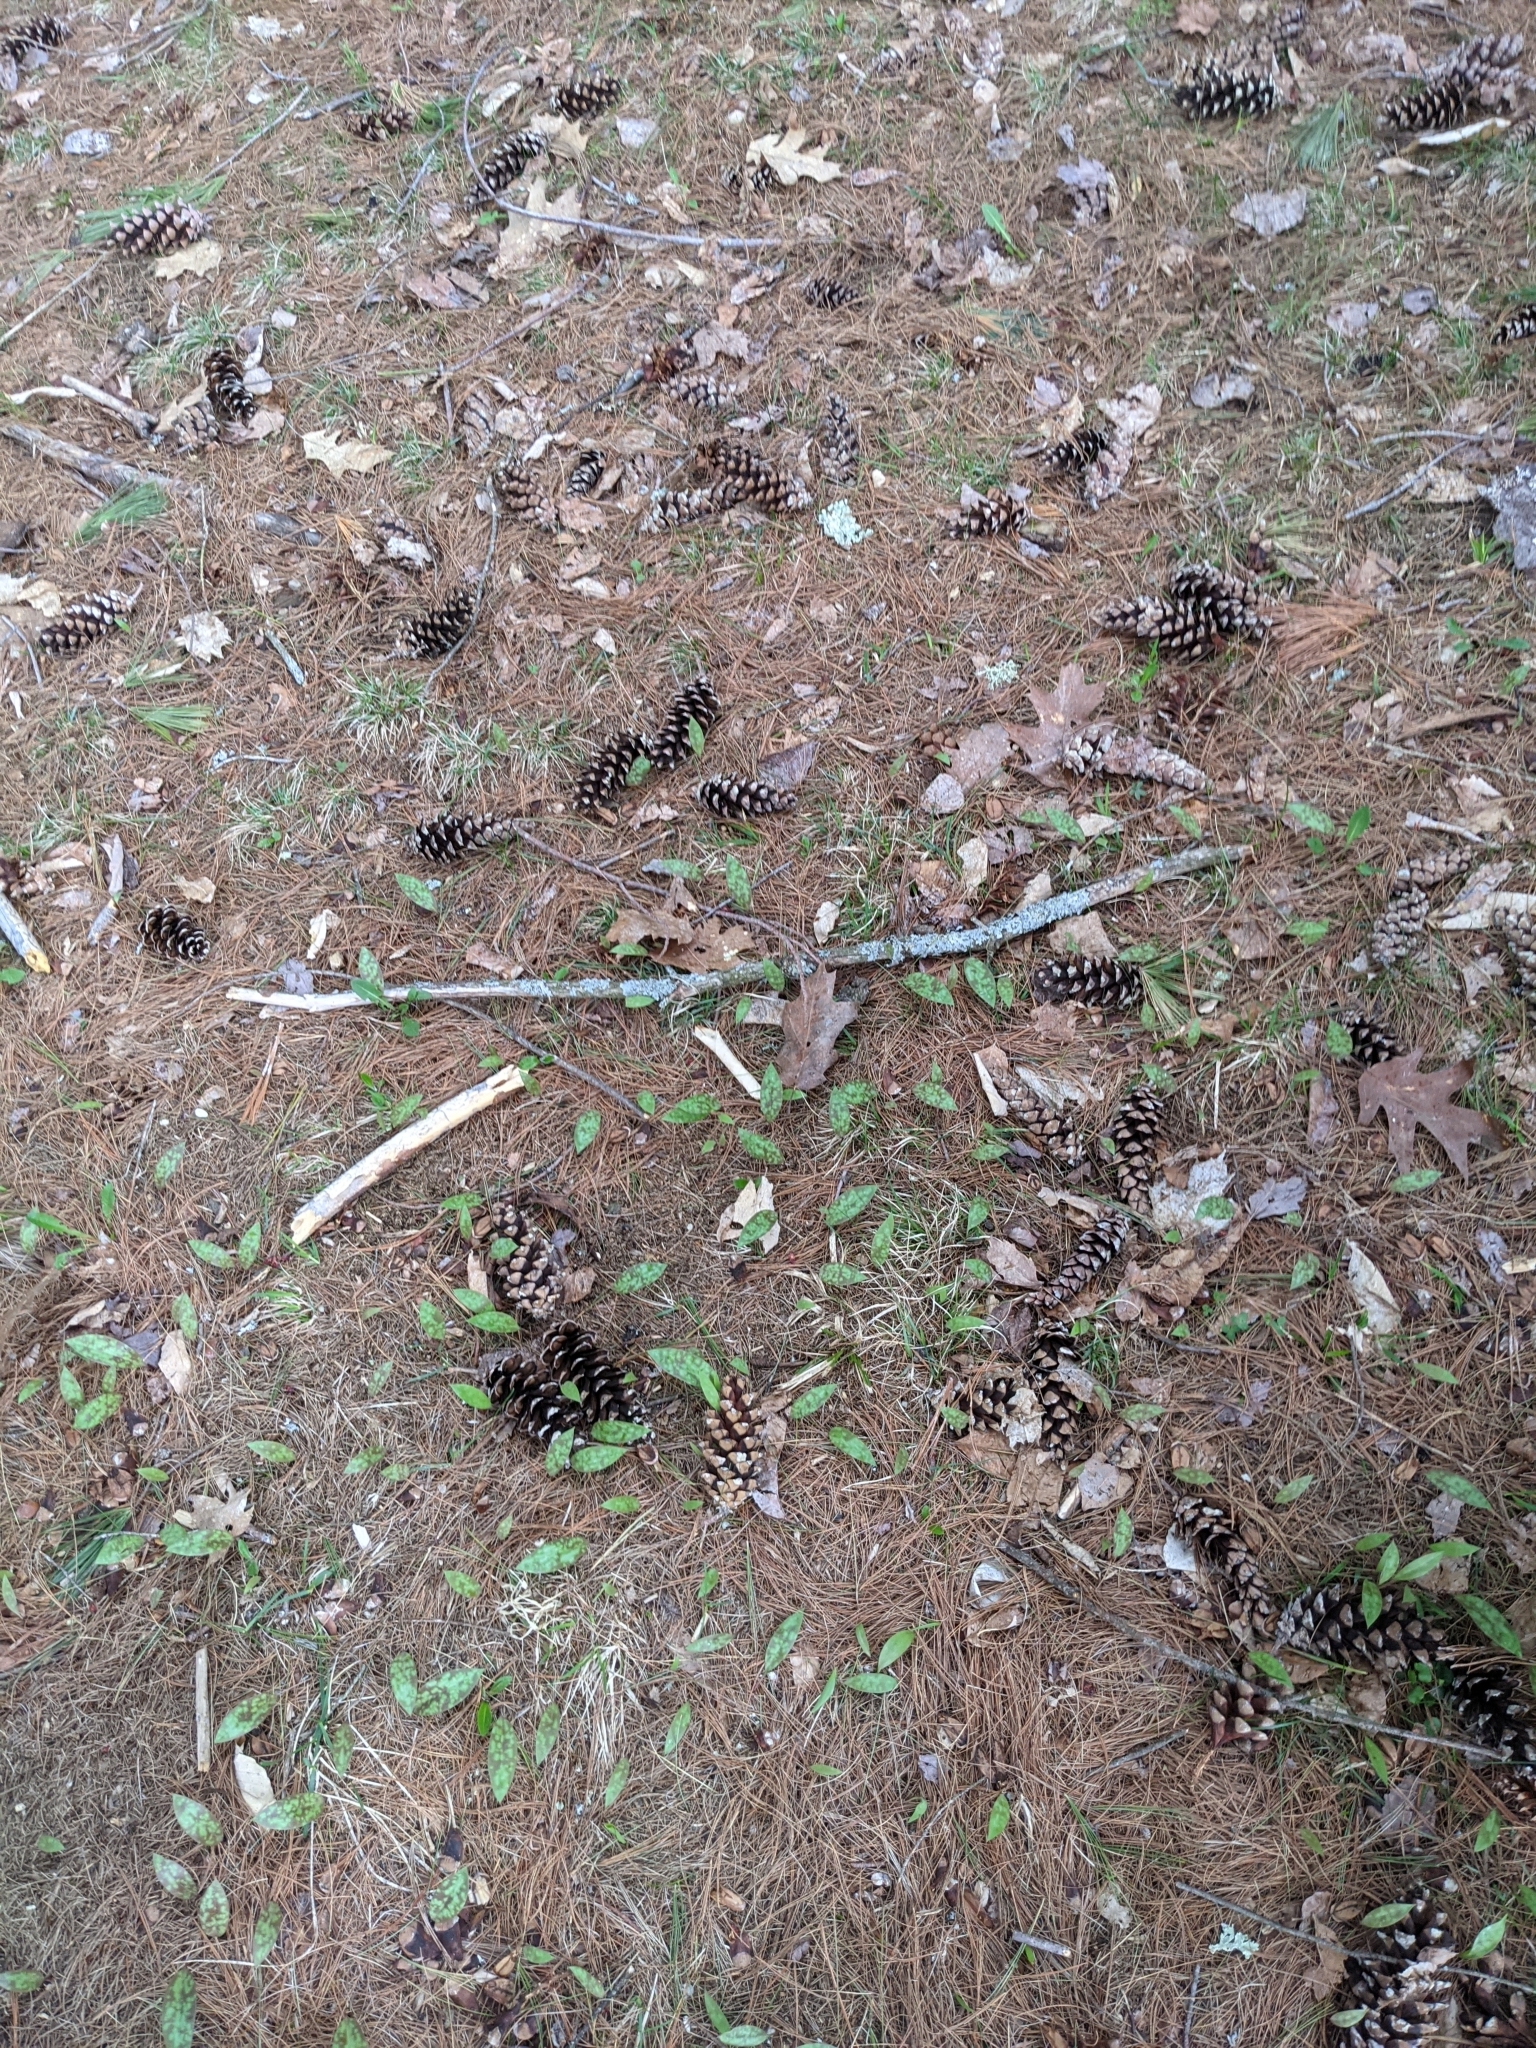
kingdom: Plantae
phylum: Tracheophyta
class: Liliopsida
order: Liliales
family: Liliaceae
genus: Erythronium
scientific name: Erythronium americanum
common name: Yellow adder's-tongue
